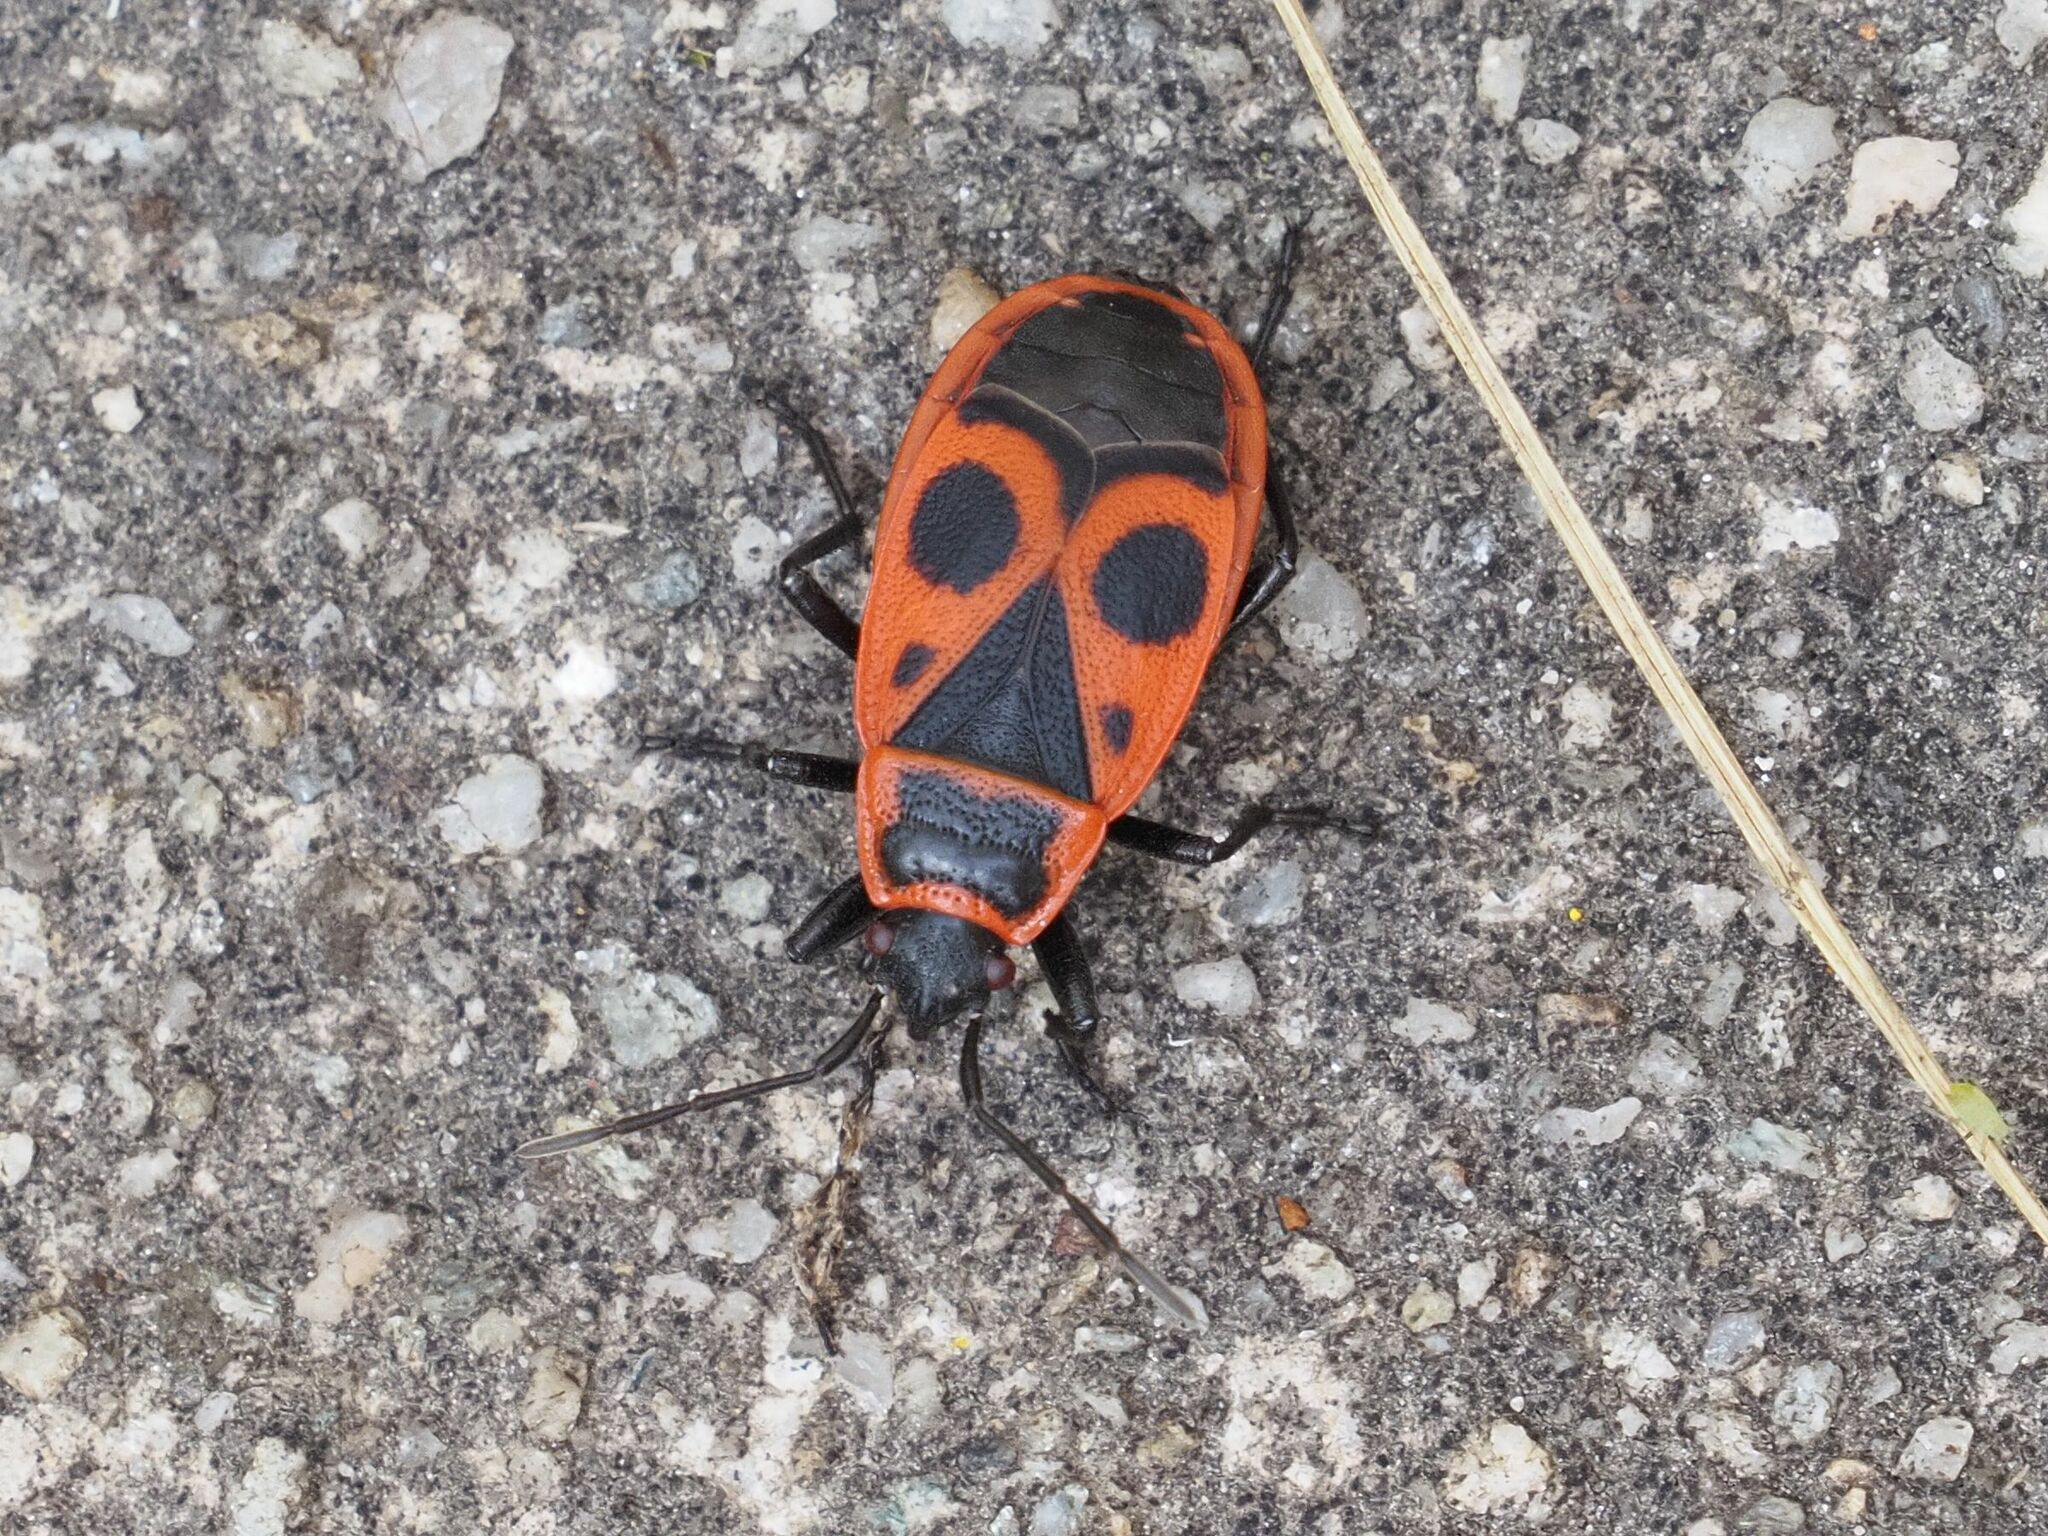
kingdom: Animalia
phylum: Arthropoda
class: Insecta
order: Hemiptera
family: Pyrrhocoridae
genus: Pyrrhocoris
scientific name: Pyrrhocoris apterus
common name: Firebug
